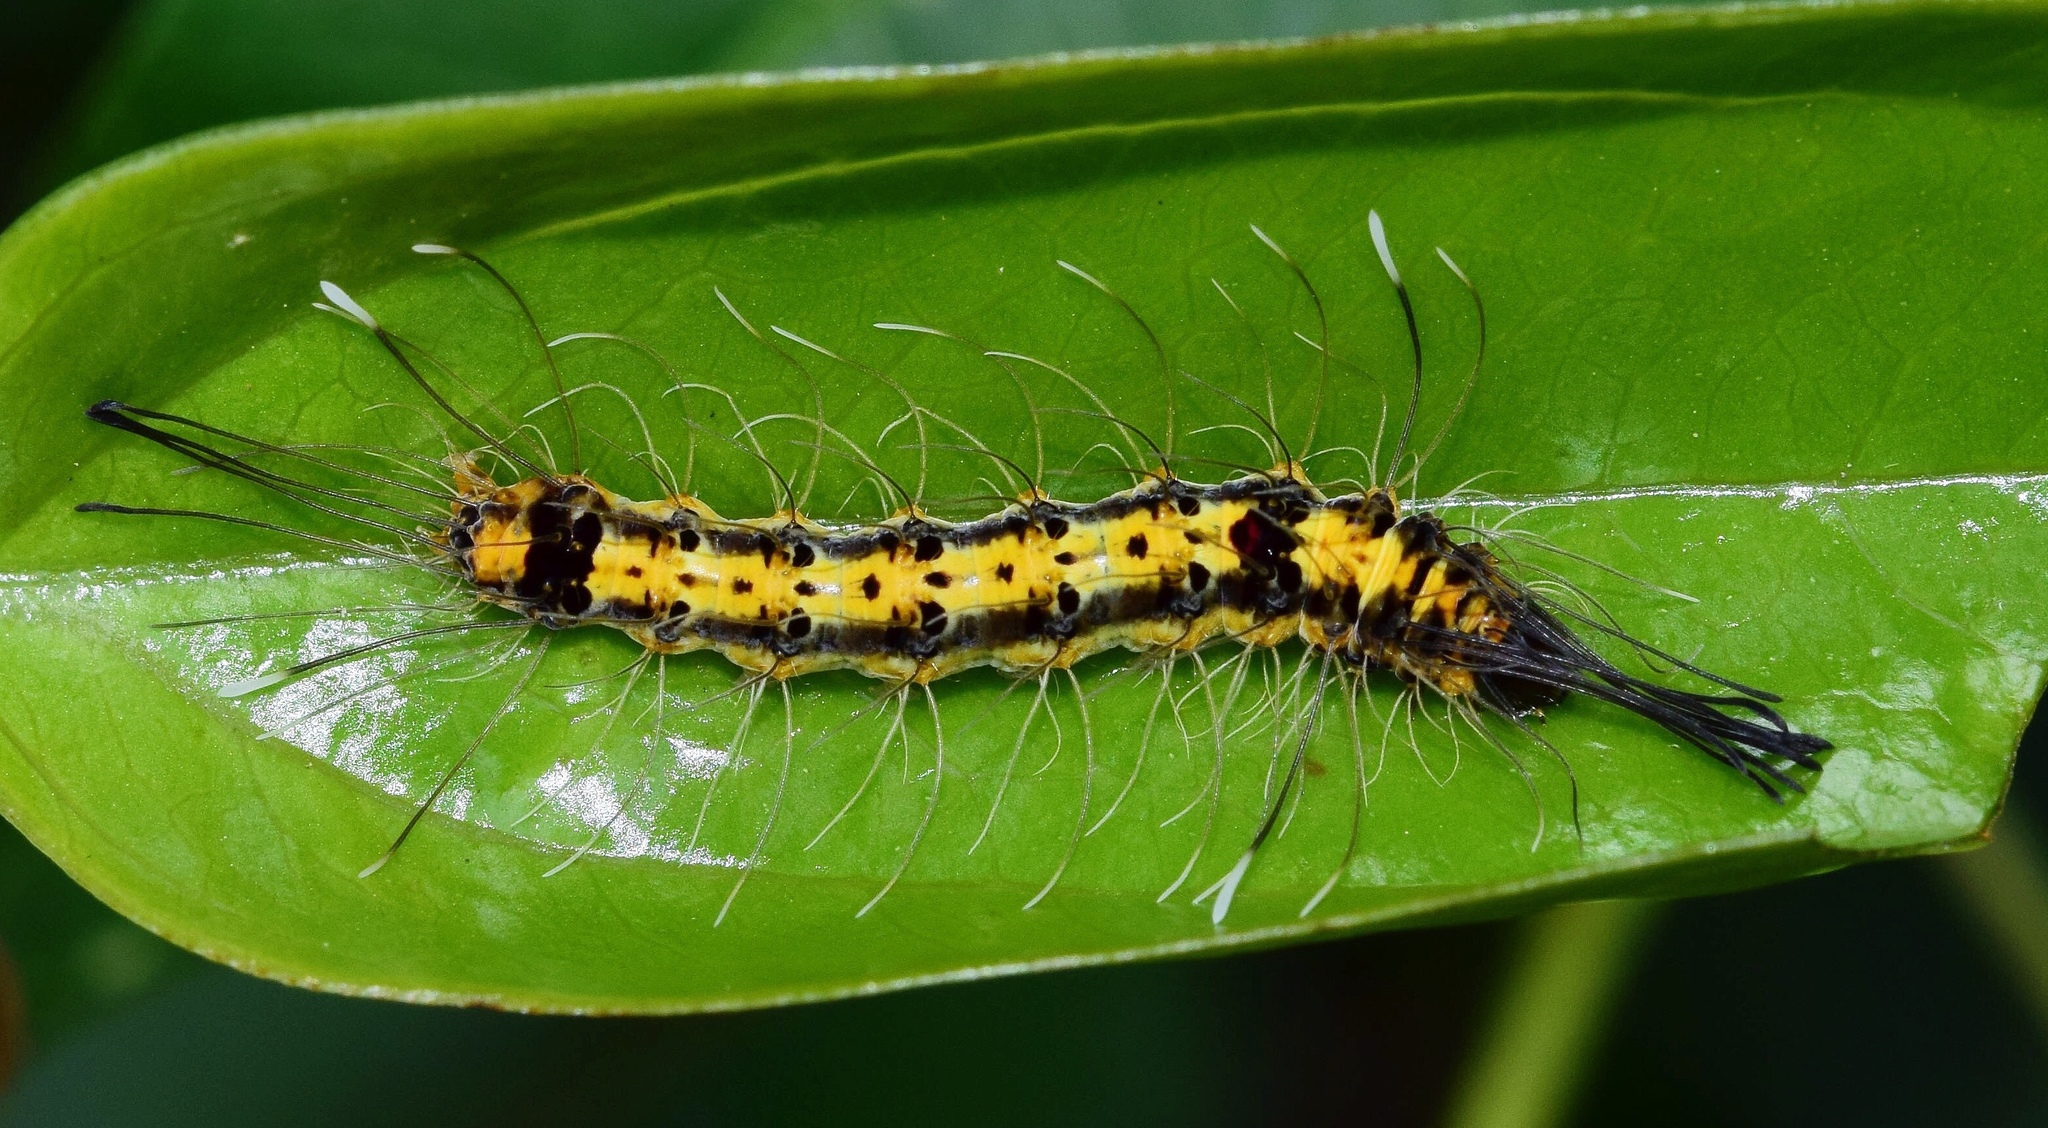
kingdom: Animalia
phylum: Arthropoda
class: Insecta
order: Lepidoptera
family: Nolidae
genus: Selepa
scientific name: Selepa transvalica
